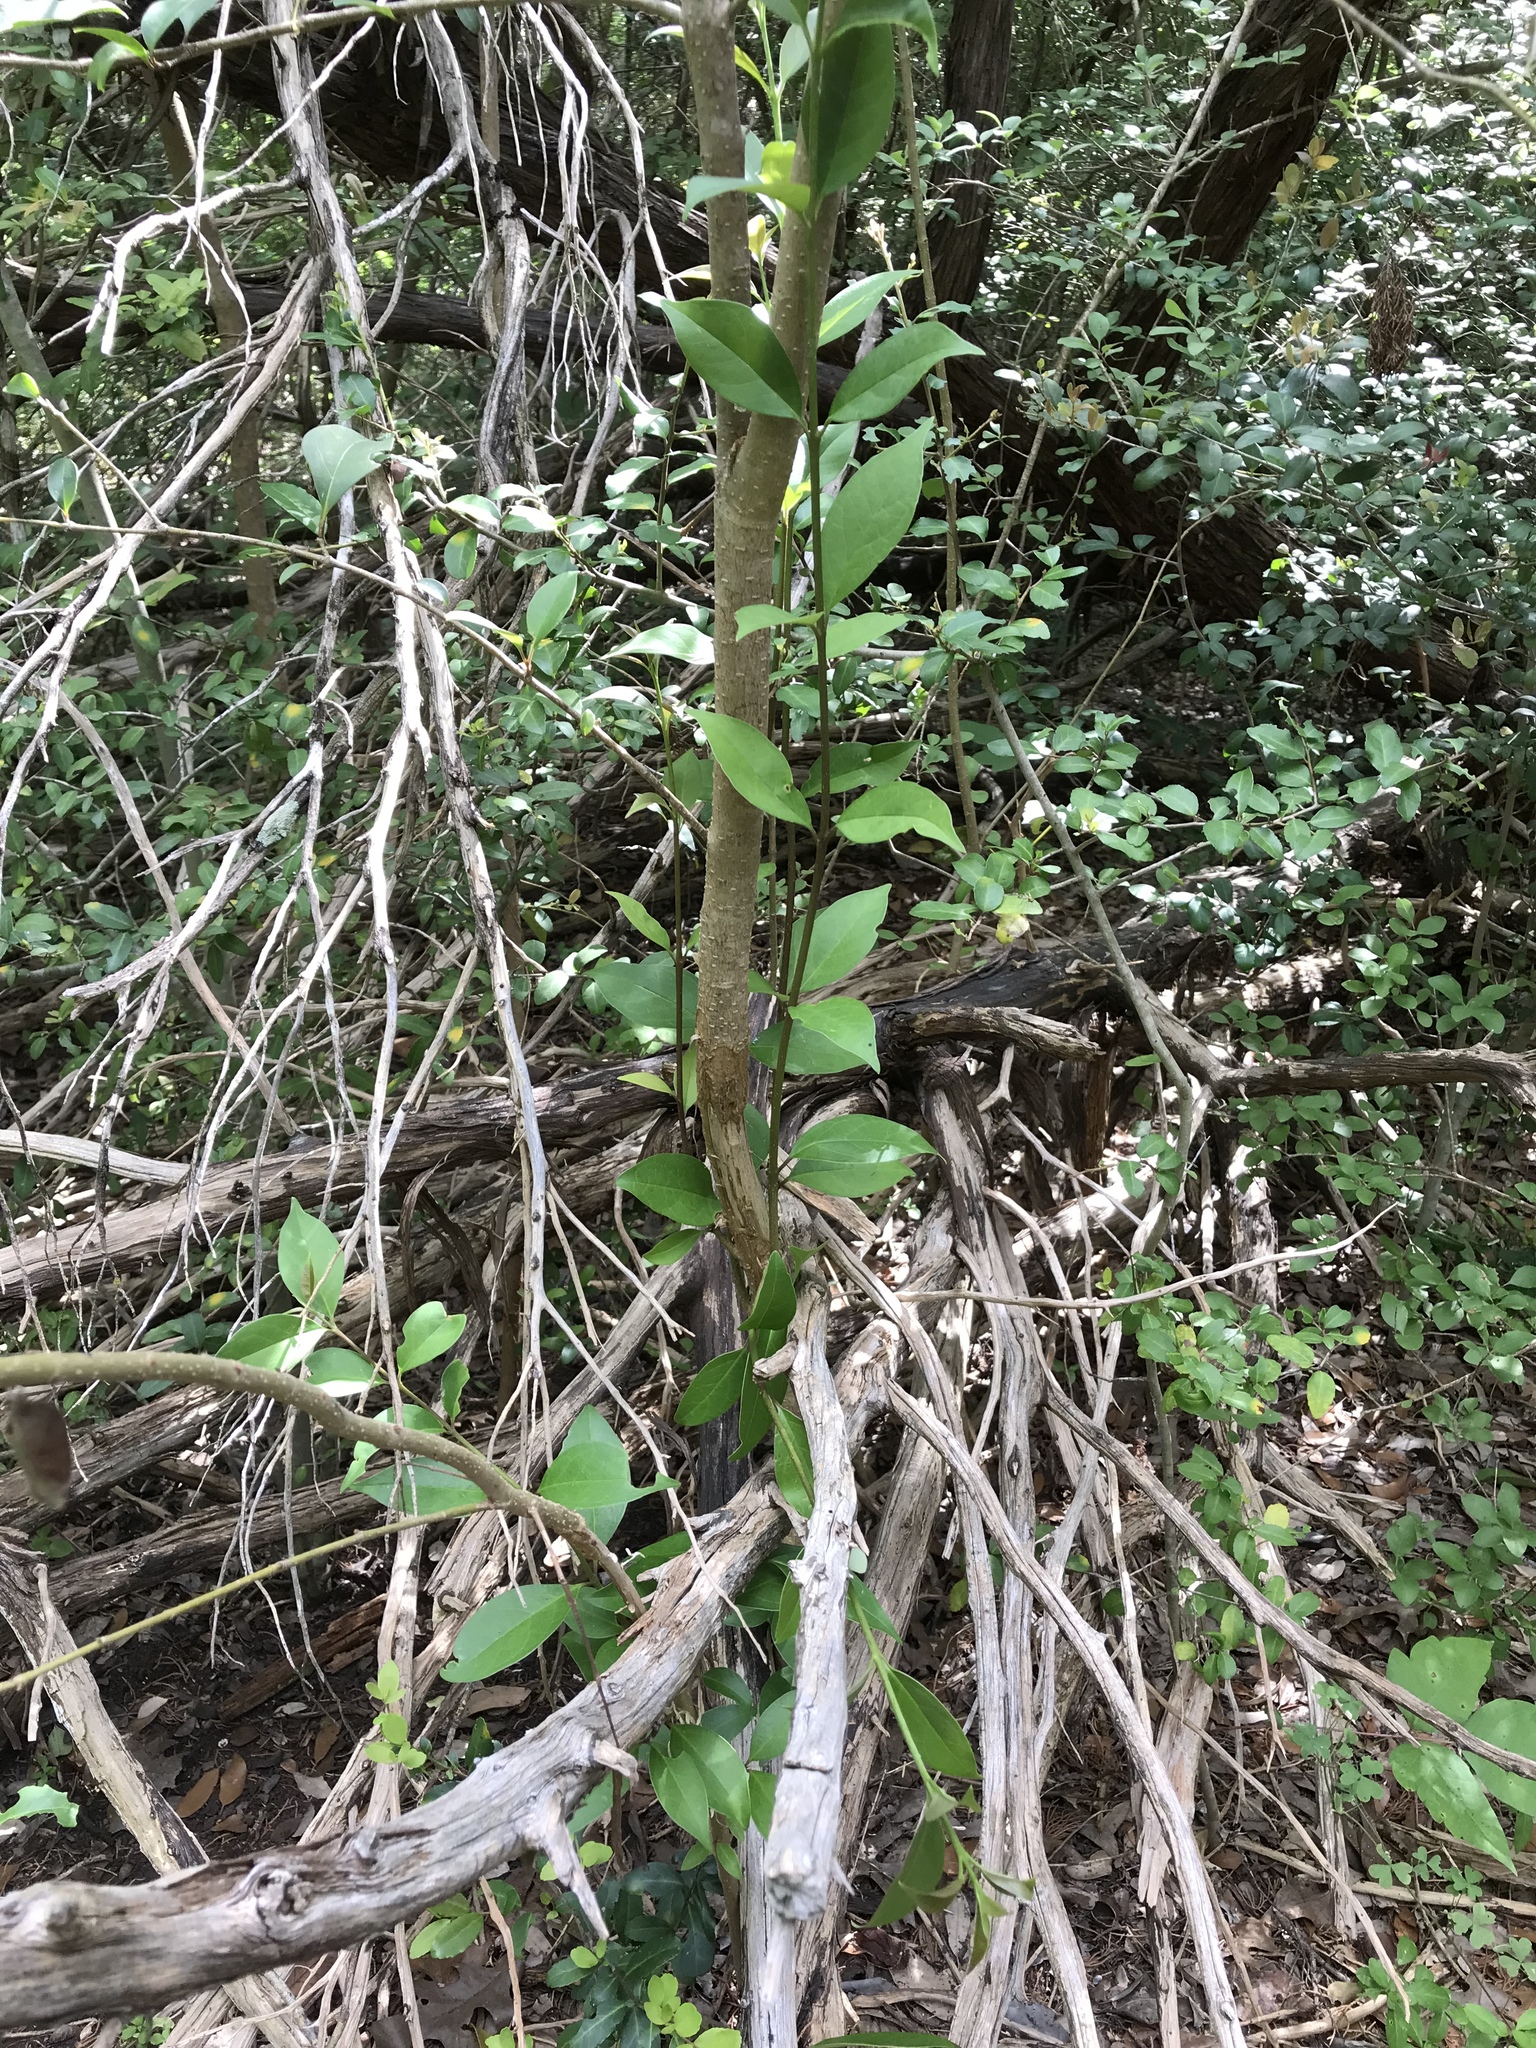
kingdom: Plantae
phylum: Tracheophyta
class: Magnoliopsida
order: Lamiales
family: Oleaceae
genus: Ligustrum
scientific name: Ligustrum lucidum
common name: Glossy privet
